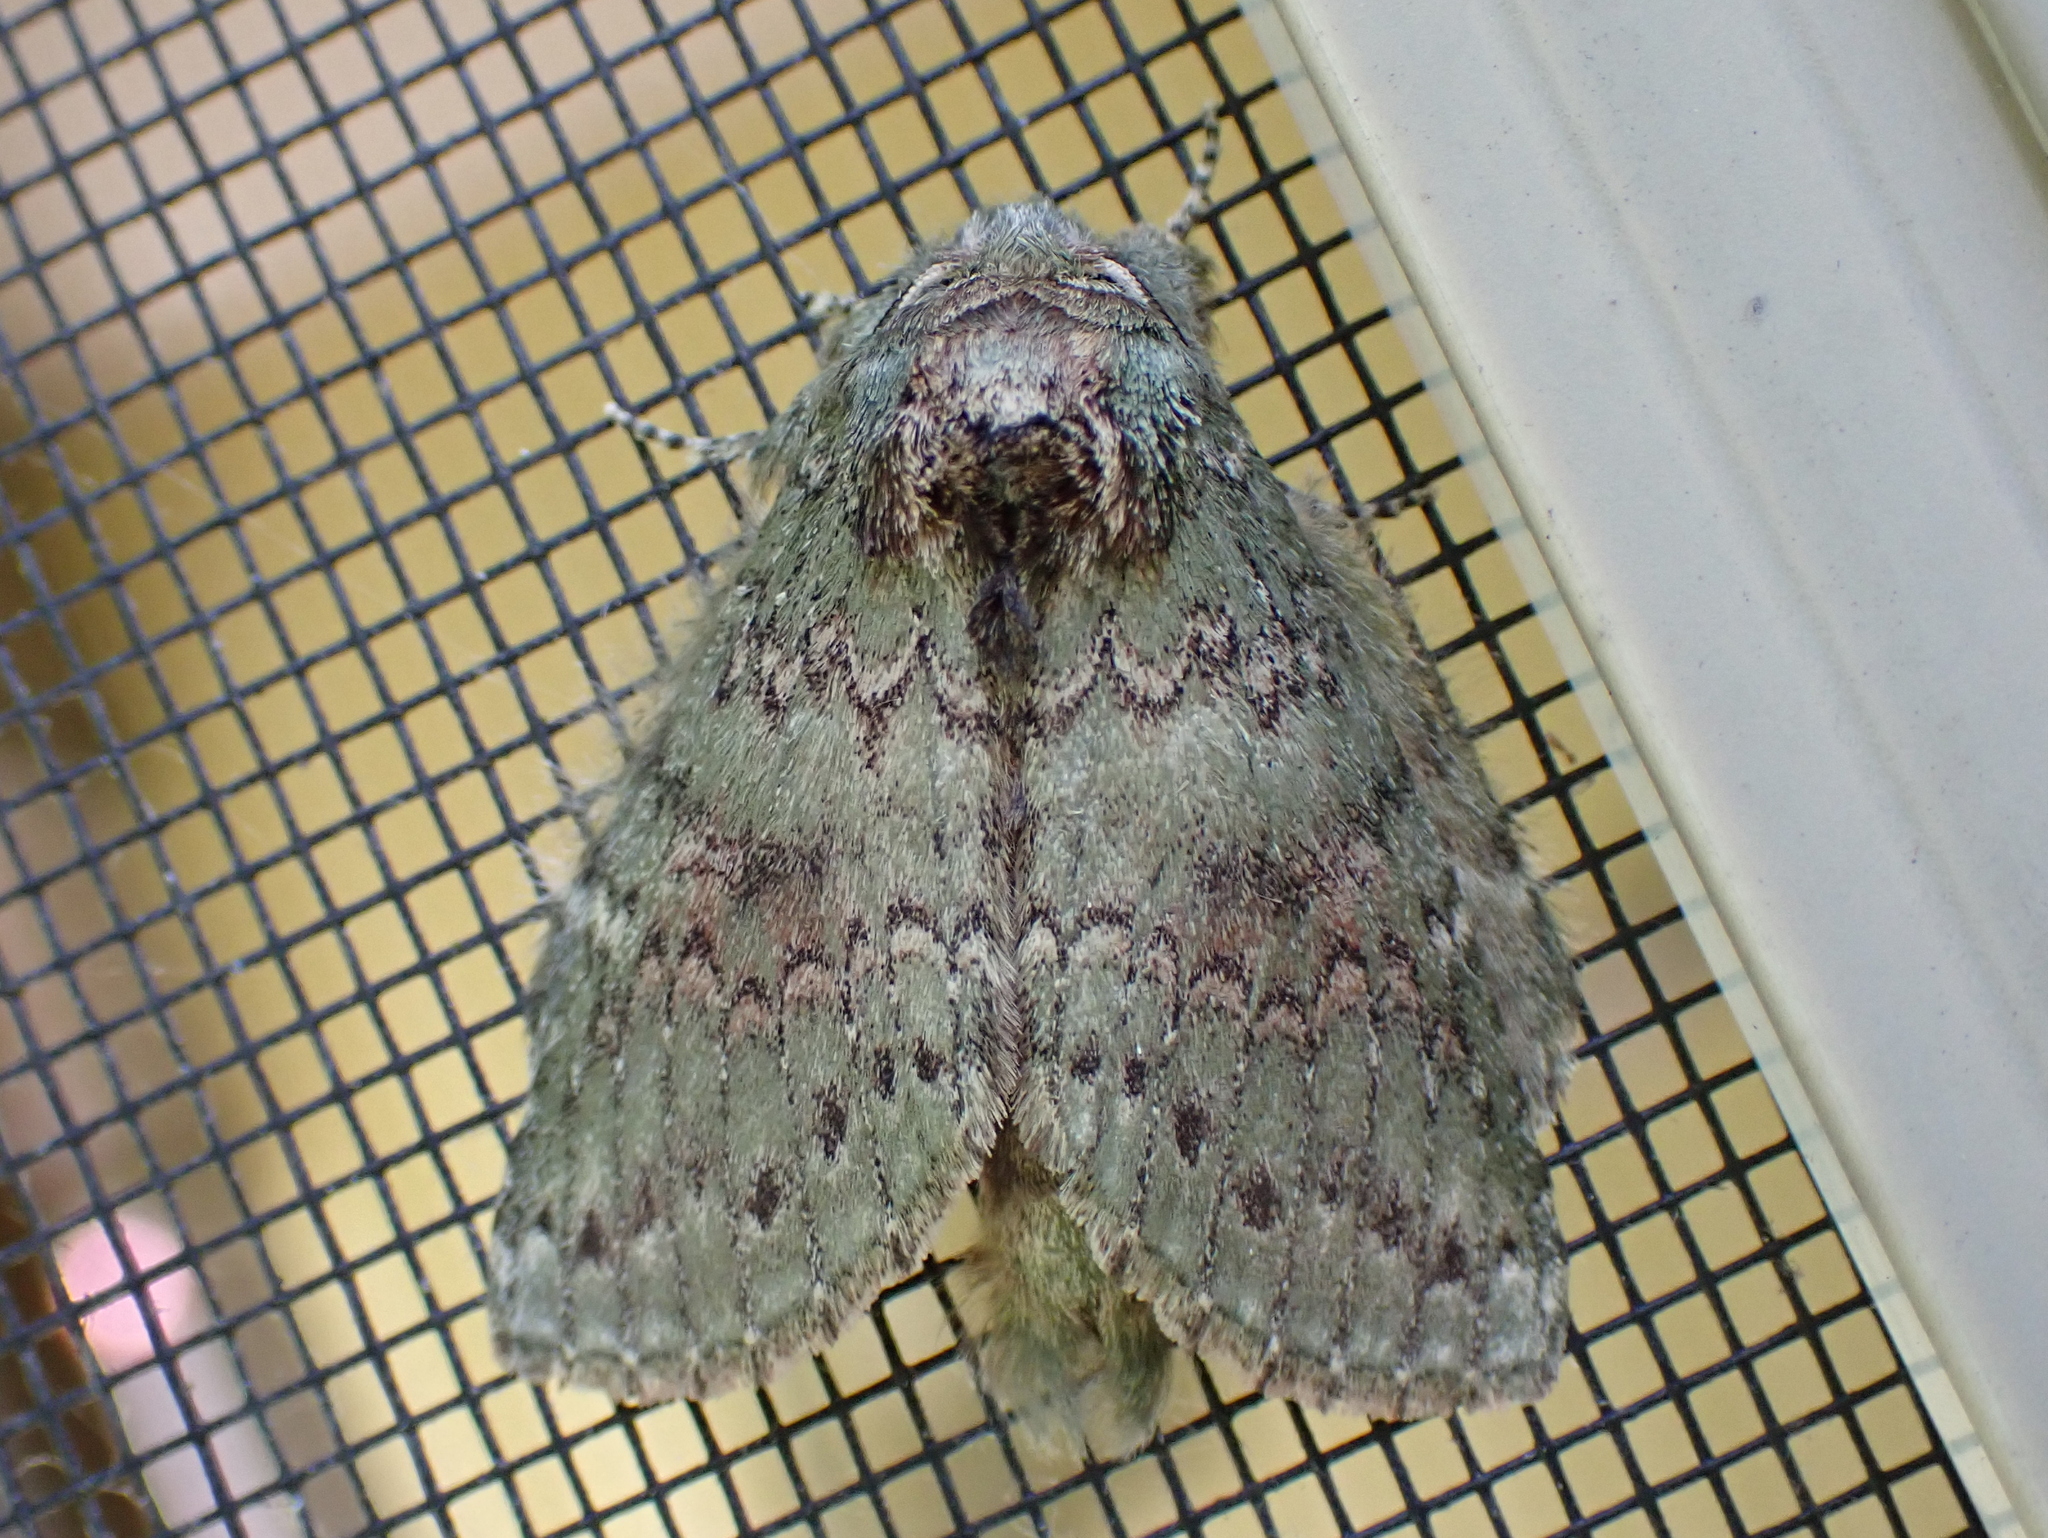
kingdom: Animalia
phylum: Arthropoda
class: Insecta
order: Lepidoptera
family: Notodontidae
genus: Disphragis
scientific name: Disphragis Cecrita biundata
